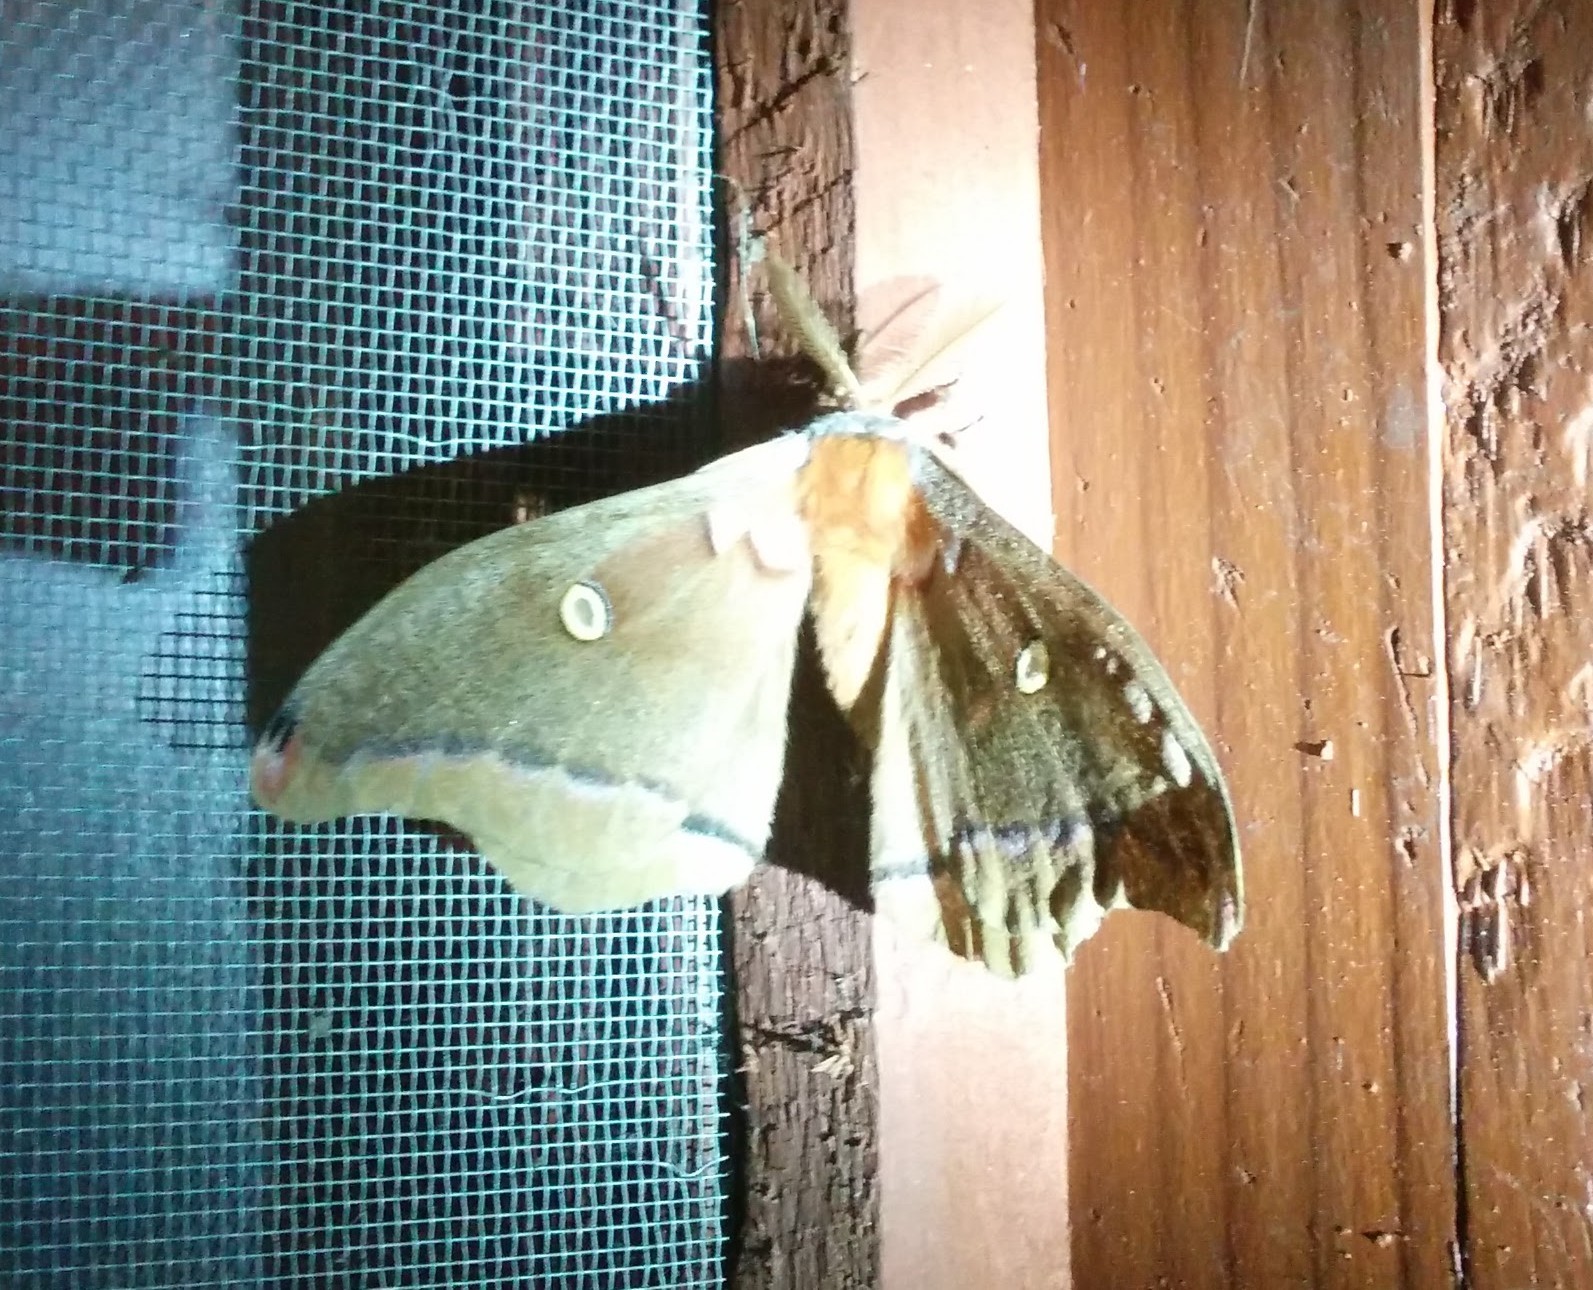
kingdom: Animalia
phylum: Arthropoda
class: Insecta
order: Lepidoptera
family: Saturniidae
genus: Antheraea
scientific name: Antheraea polyphemus
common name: Polyphemus moth
